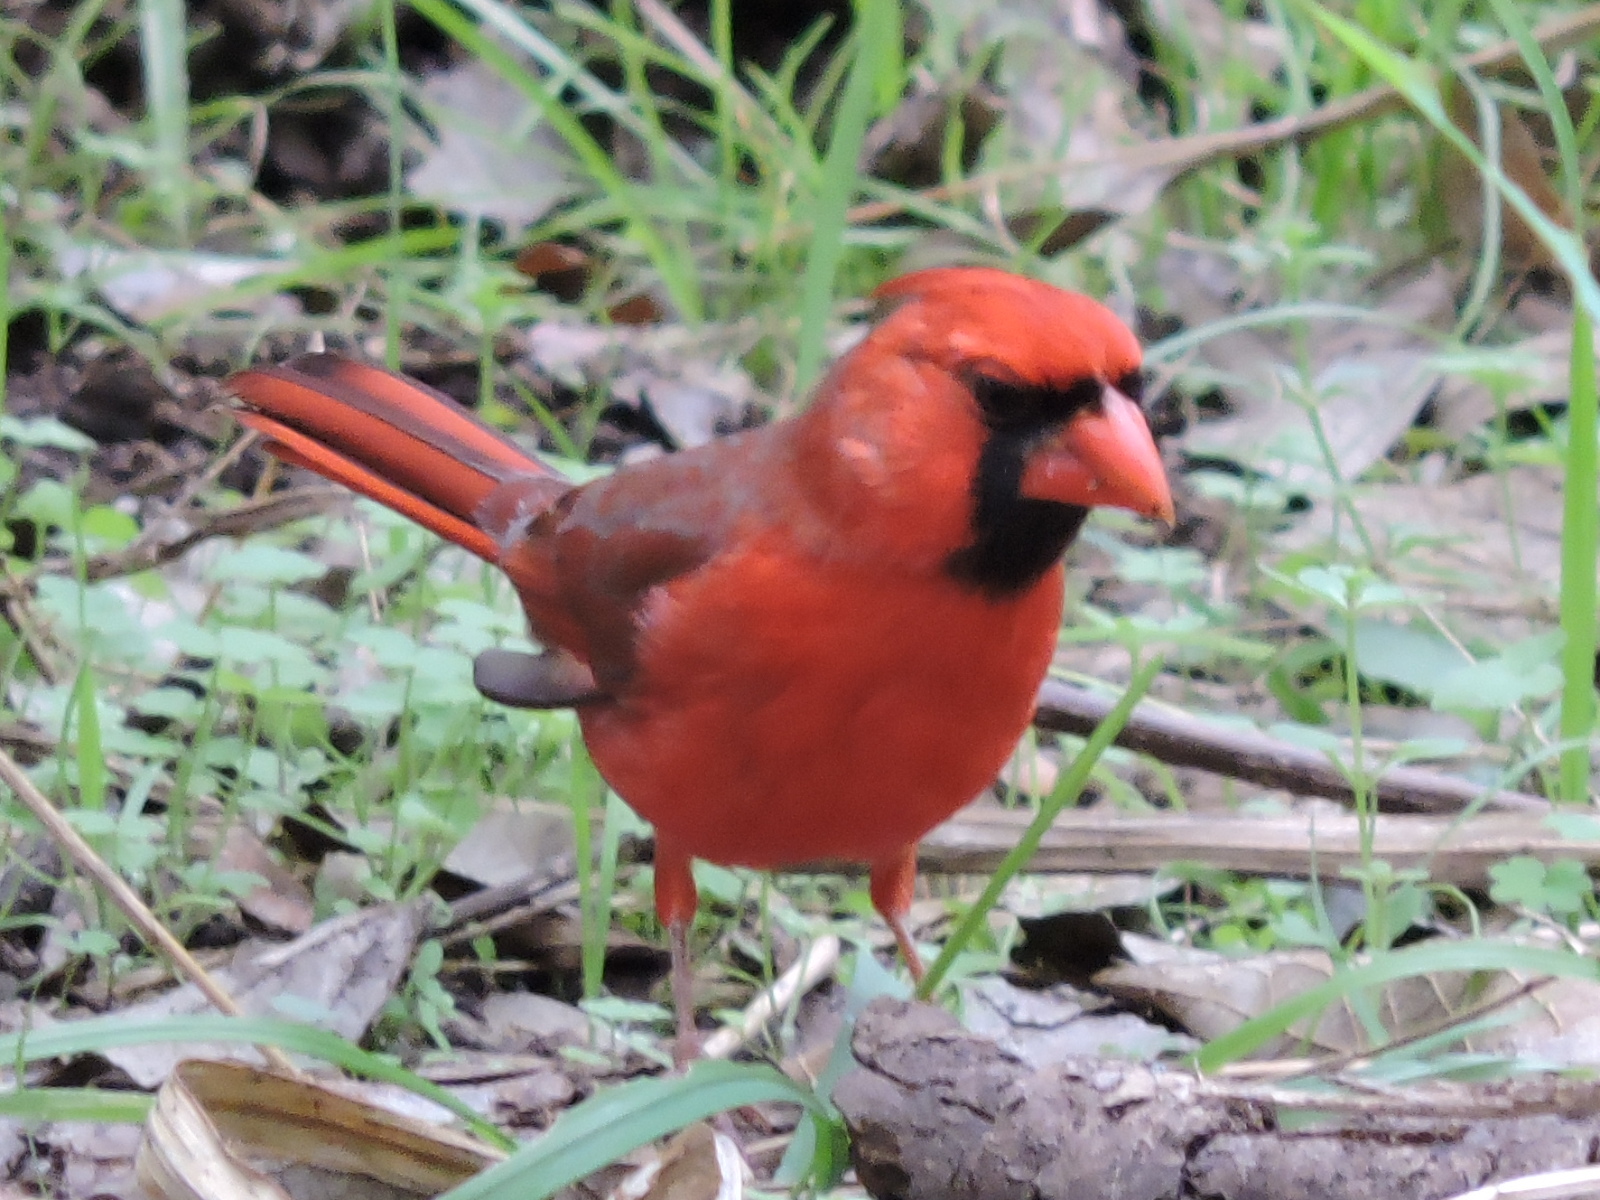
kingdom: Animalia
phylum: Chordata
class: Aves
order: Passeriformes
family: Cardinalidae
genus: Cardinalis
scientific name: Cardinalis cardinalis
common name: Northern cardinal
